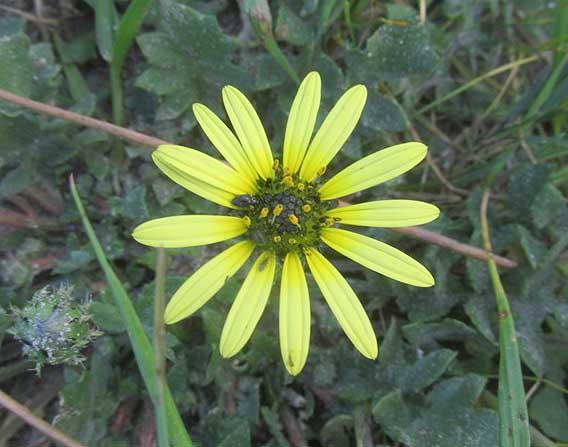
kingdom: Plantae
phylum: Tracheophyta
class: Magnoliopsida
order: Asterales
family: Asteraceae
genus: Arctotheca
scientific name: Arctotheca calendula
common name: Capeweed
